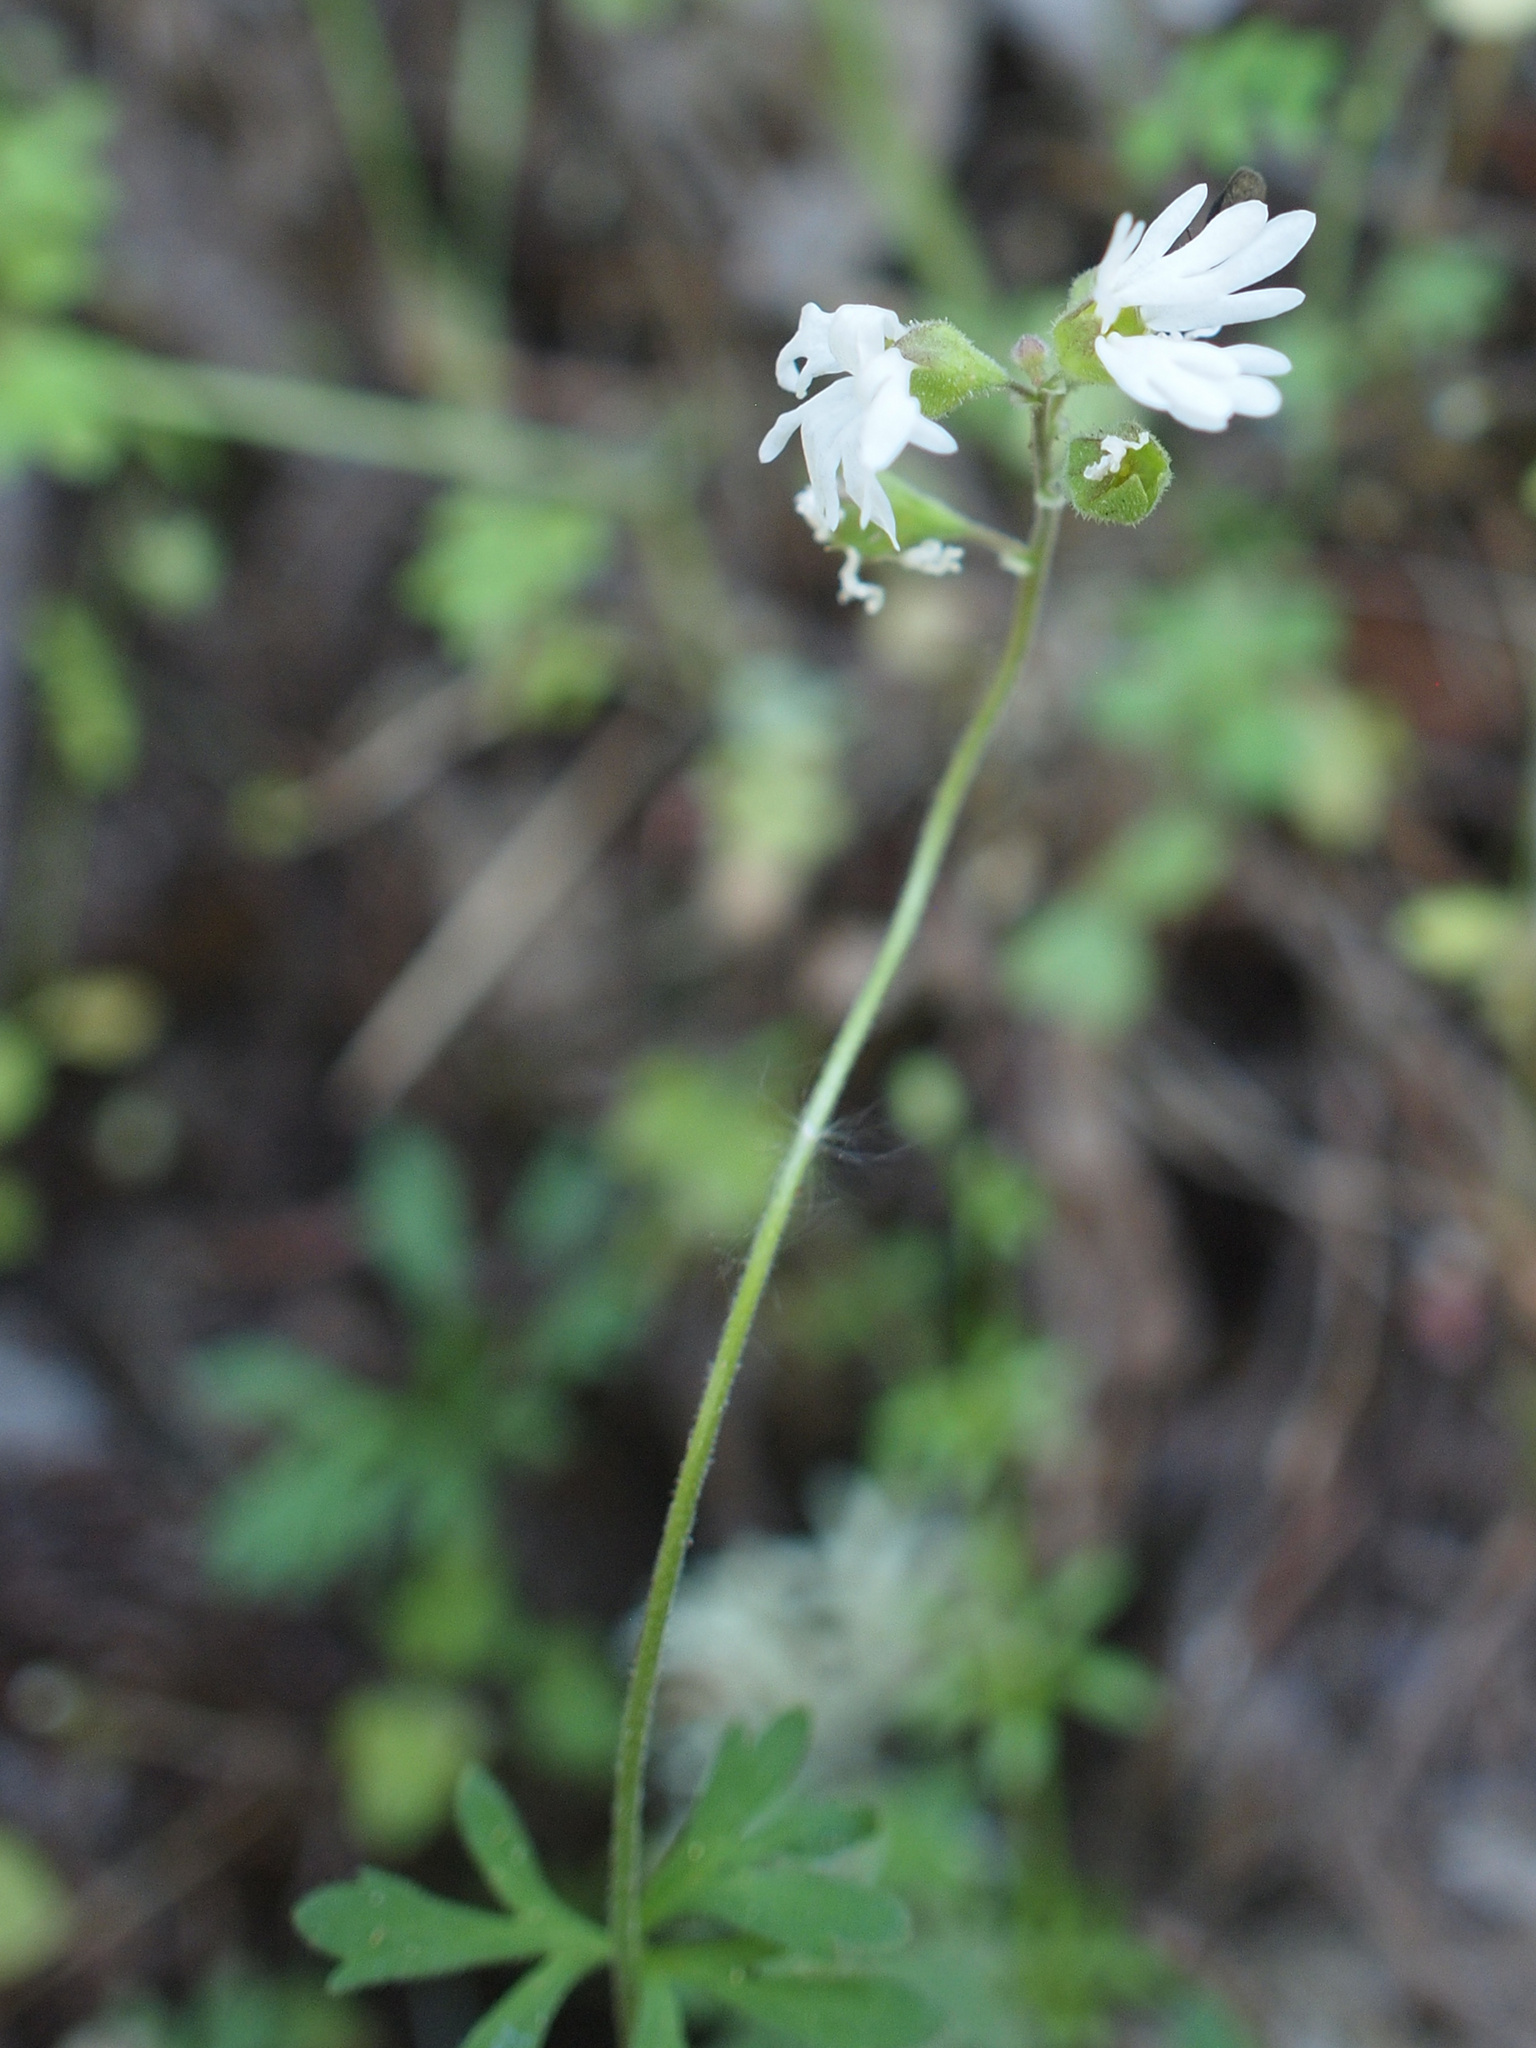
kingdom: Plantae
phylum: Tracheophyta
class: Magnoliopsida
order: Saxifragales
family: Saxifragaceae
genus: Lithophragma
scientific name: Lithophragma parviflorum
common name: Small-flowered fringe-cup
